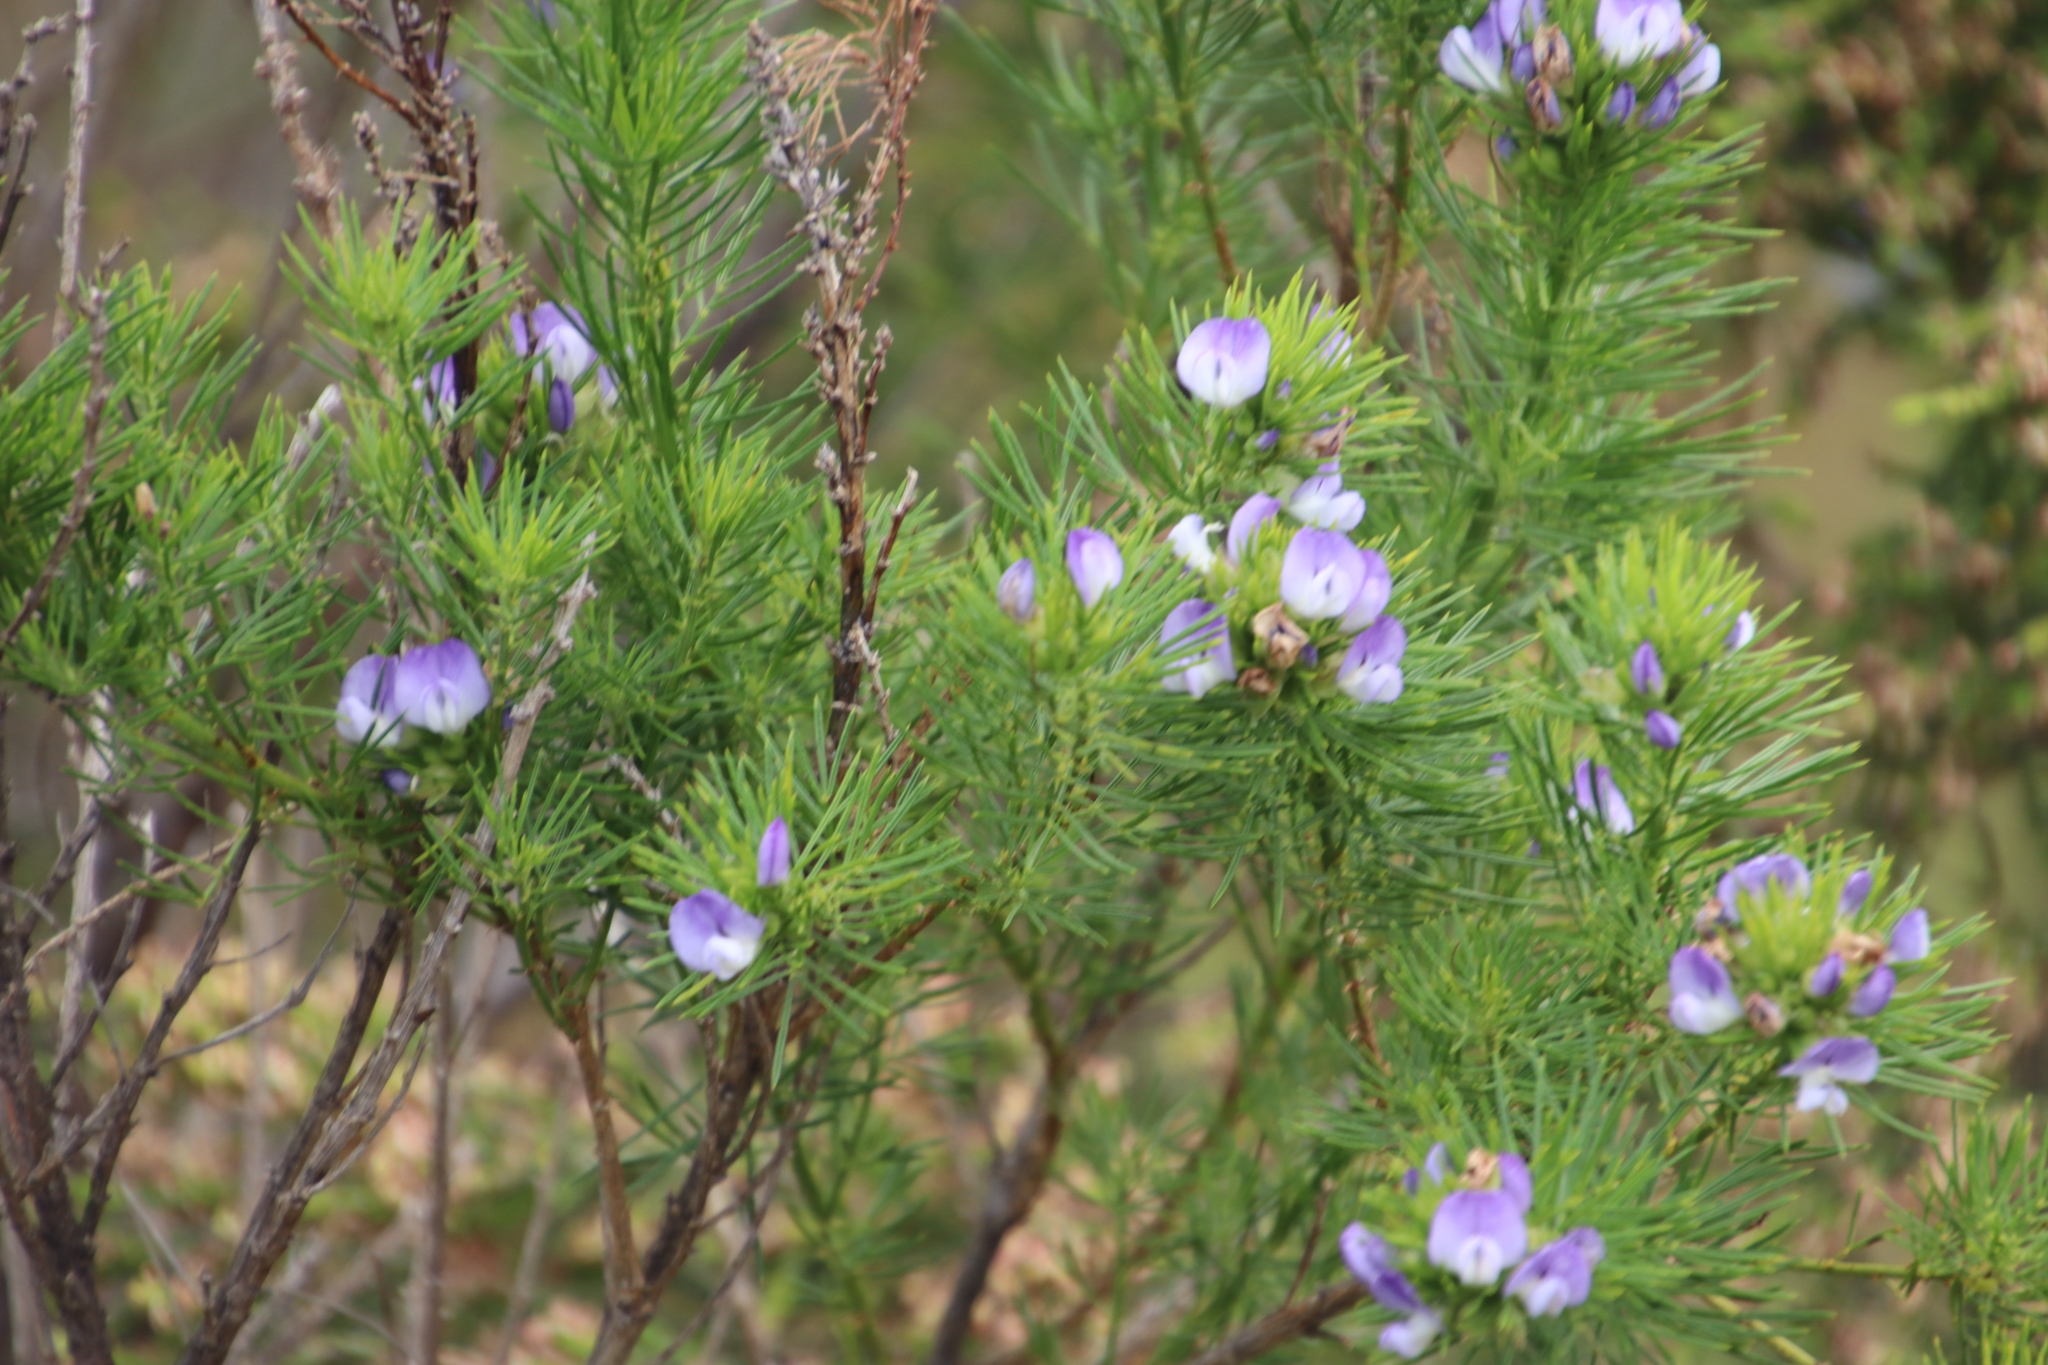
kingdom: Plantae
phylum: Tracheophyta
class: Magnoliopsida
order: Fabales
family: Fabaceae
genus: Psoralea
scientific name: Psoralea pinnata
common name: African scurfpea
